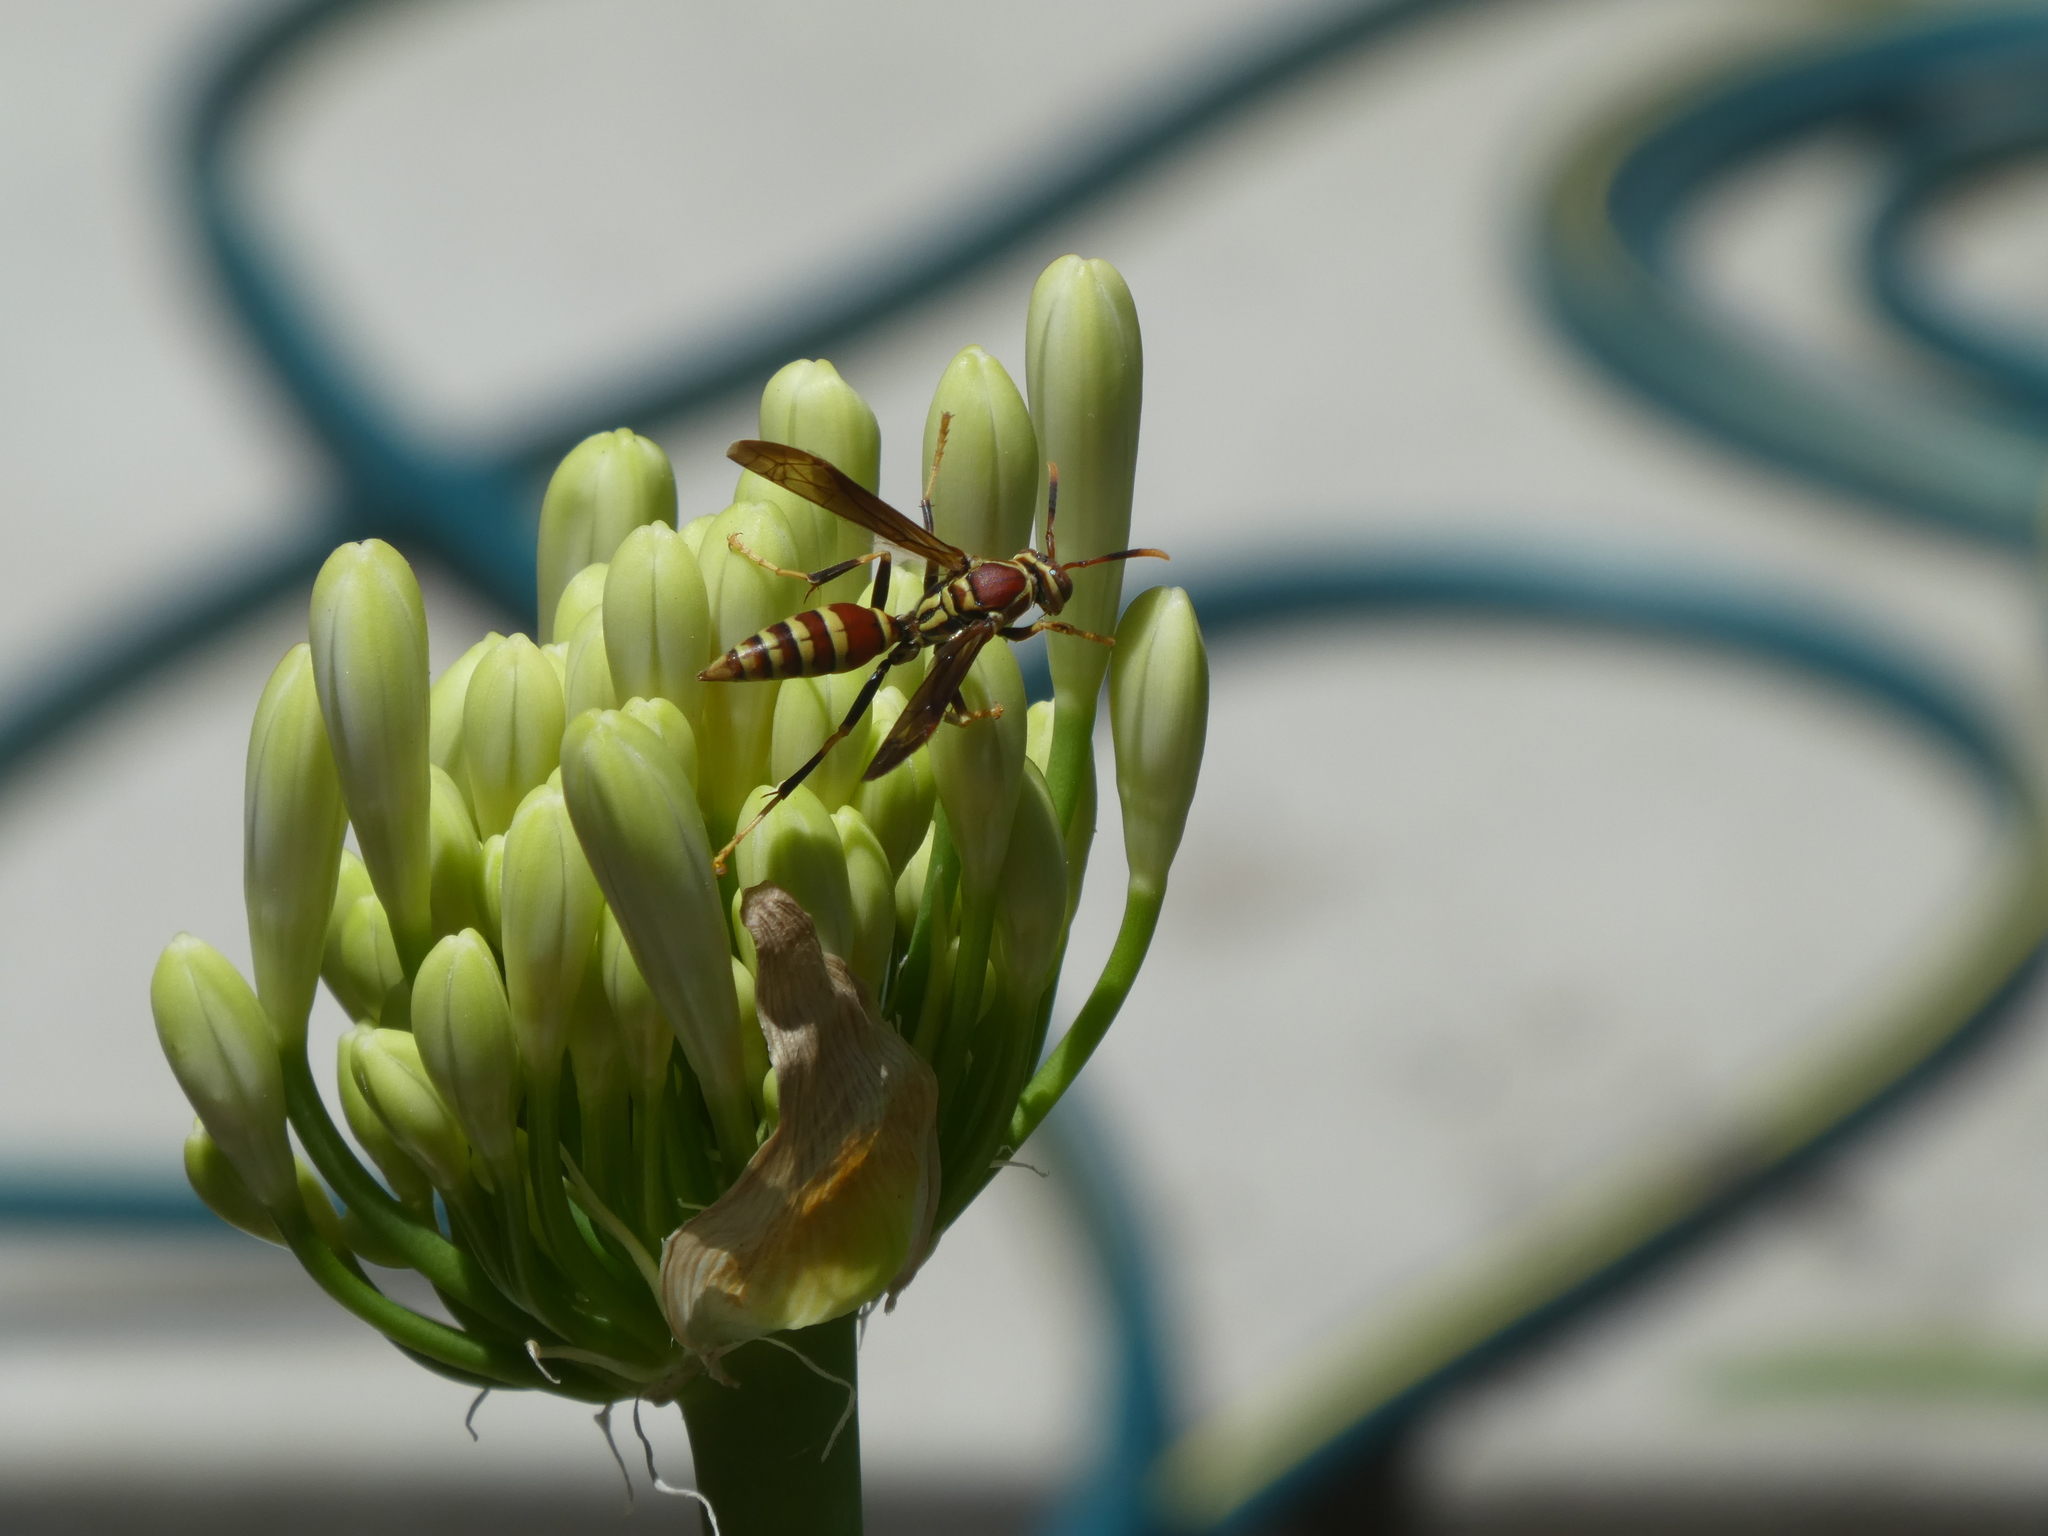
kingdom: Animalia
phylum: Arthropoda
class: Insecta
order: Hymenoptera
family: Eumenidae
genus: Polistes
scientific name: Polistes exclamans
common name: Paper wasp
